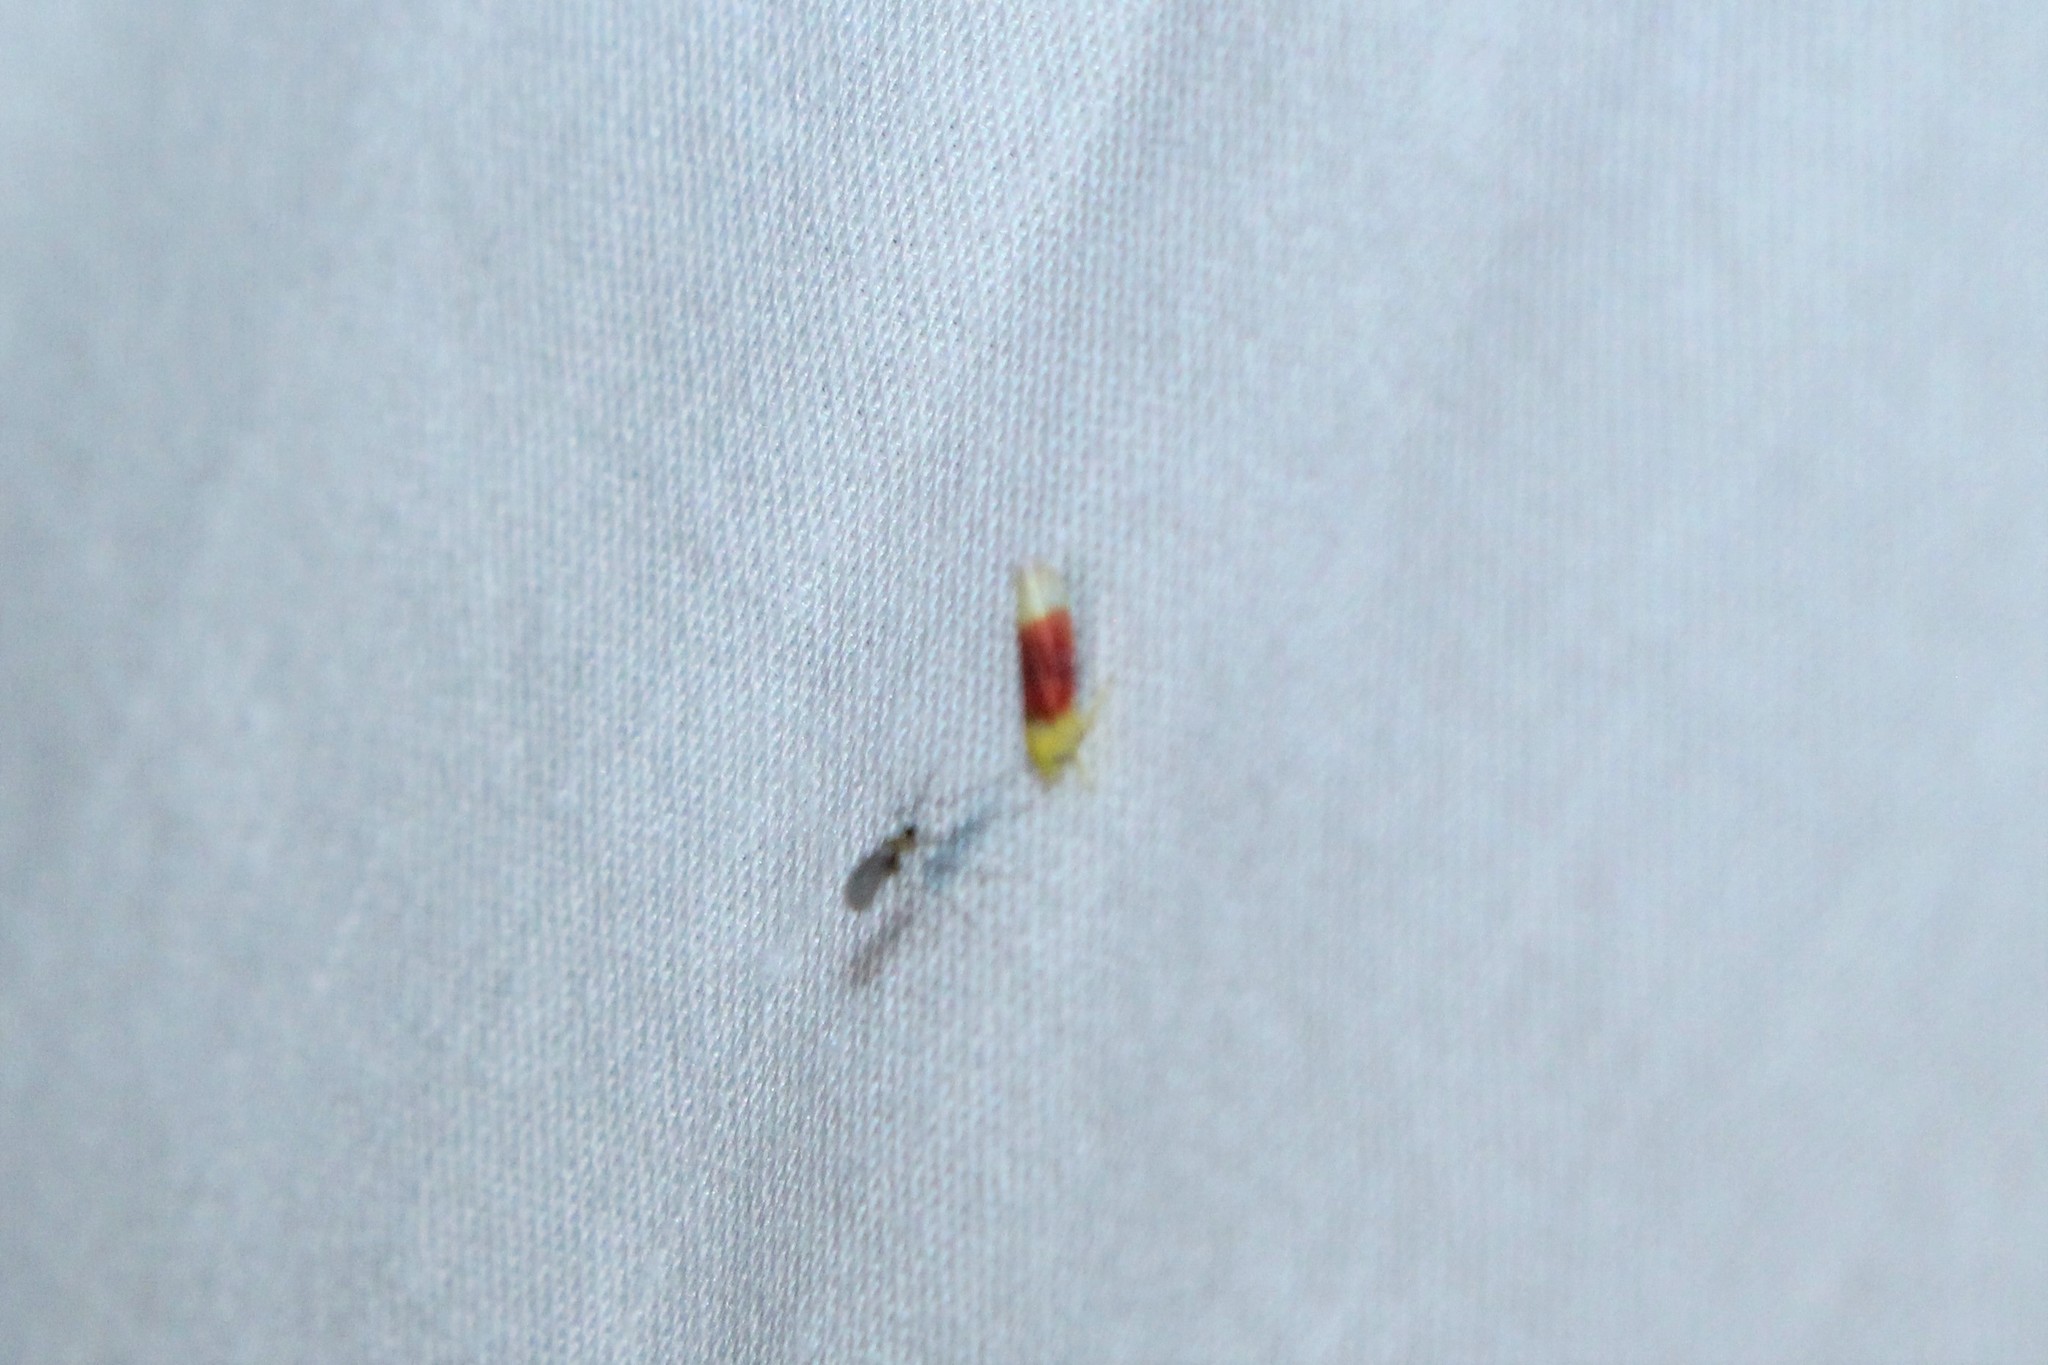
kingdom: Animalia
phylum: Arthropoda
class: Insecta
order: Hemiptera
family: Cicadellidae
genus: Ossiannilssonola
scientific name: Ossiannilssonola tunicarubra
